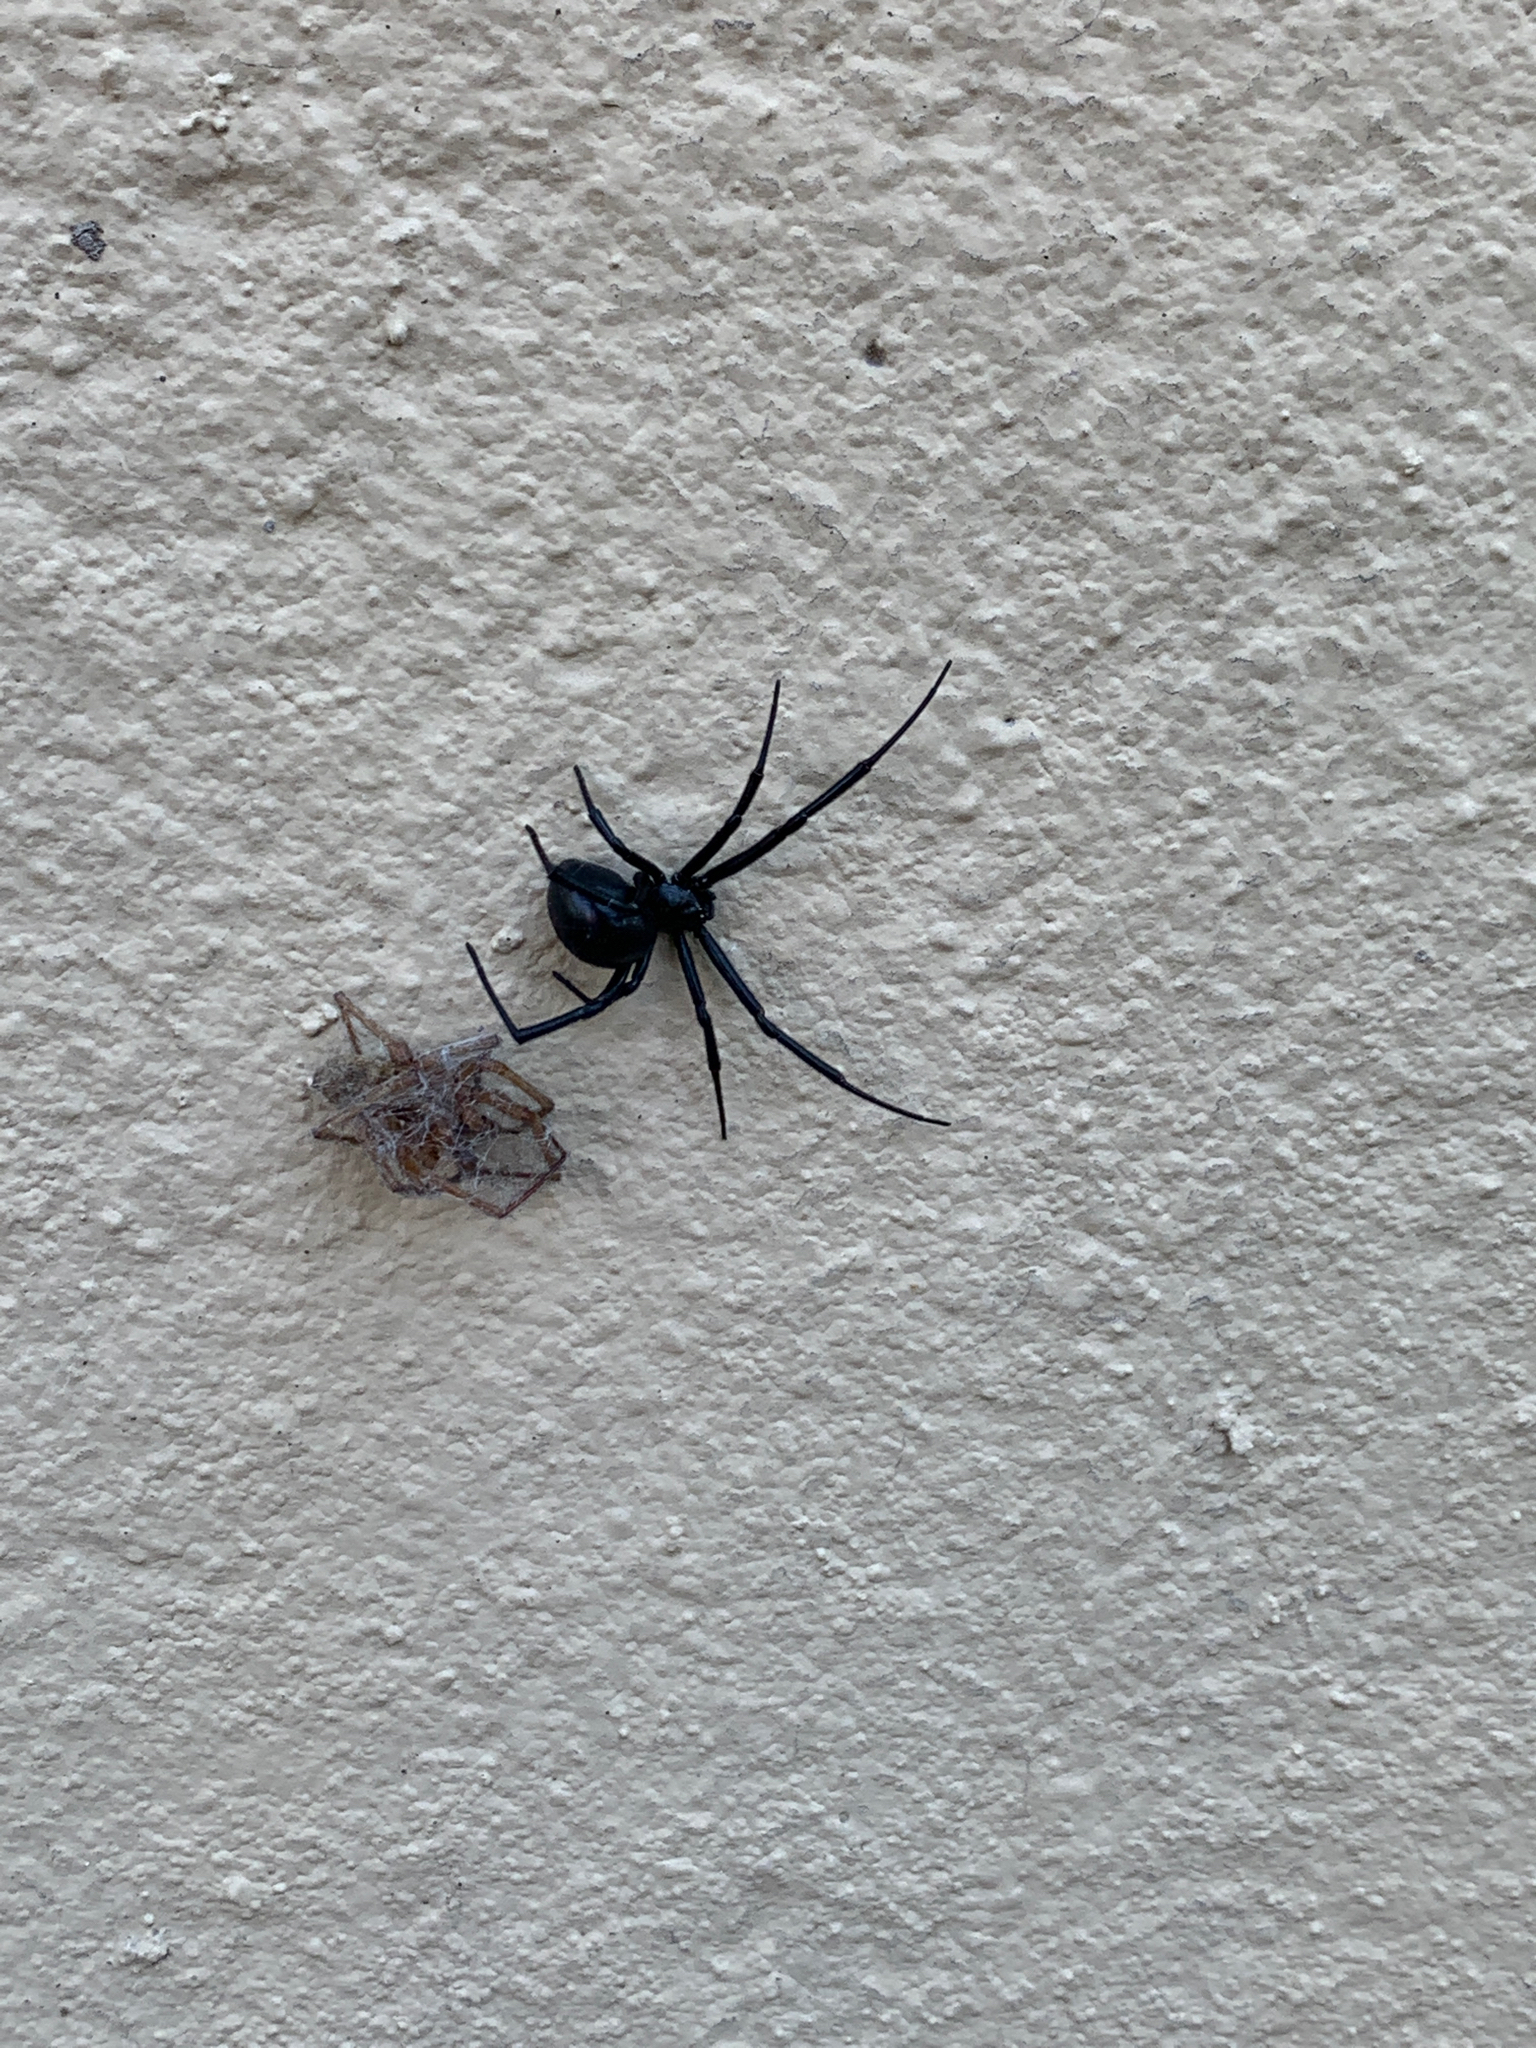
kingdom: Animalia
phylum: Arthropoda
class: Arachnida
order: Araneae
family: Theridiidae
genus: Latrodectus
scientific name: Latrodectus hesperus
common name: Western black widow
